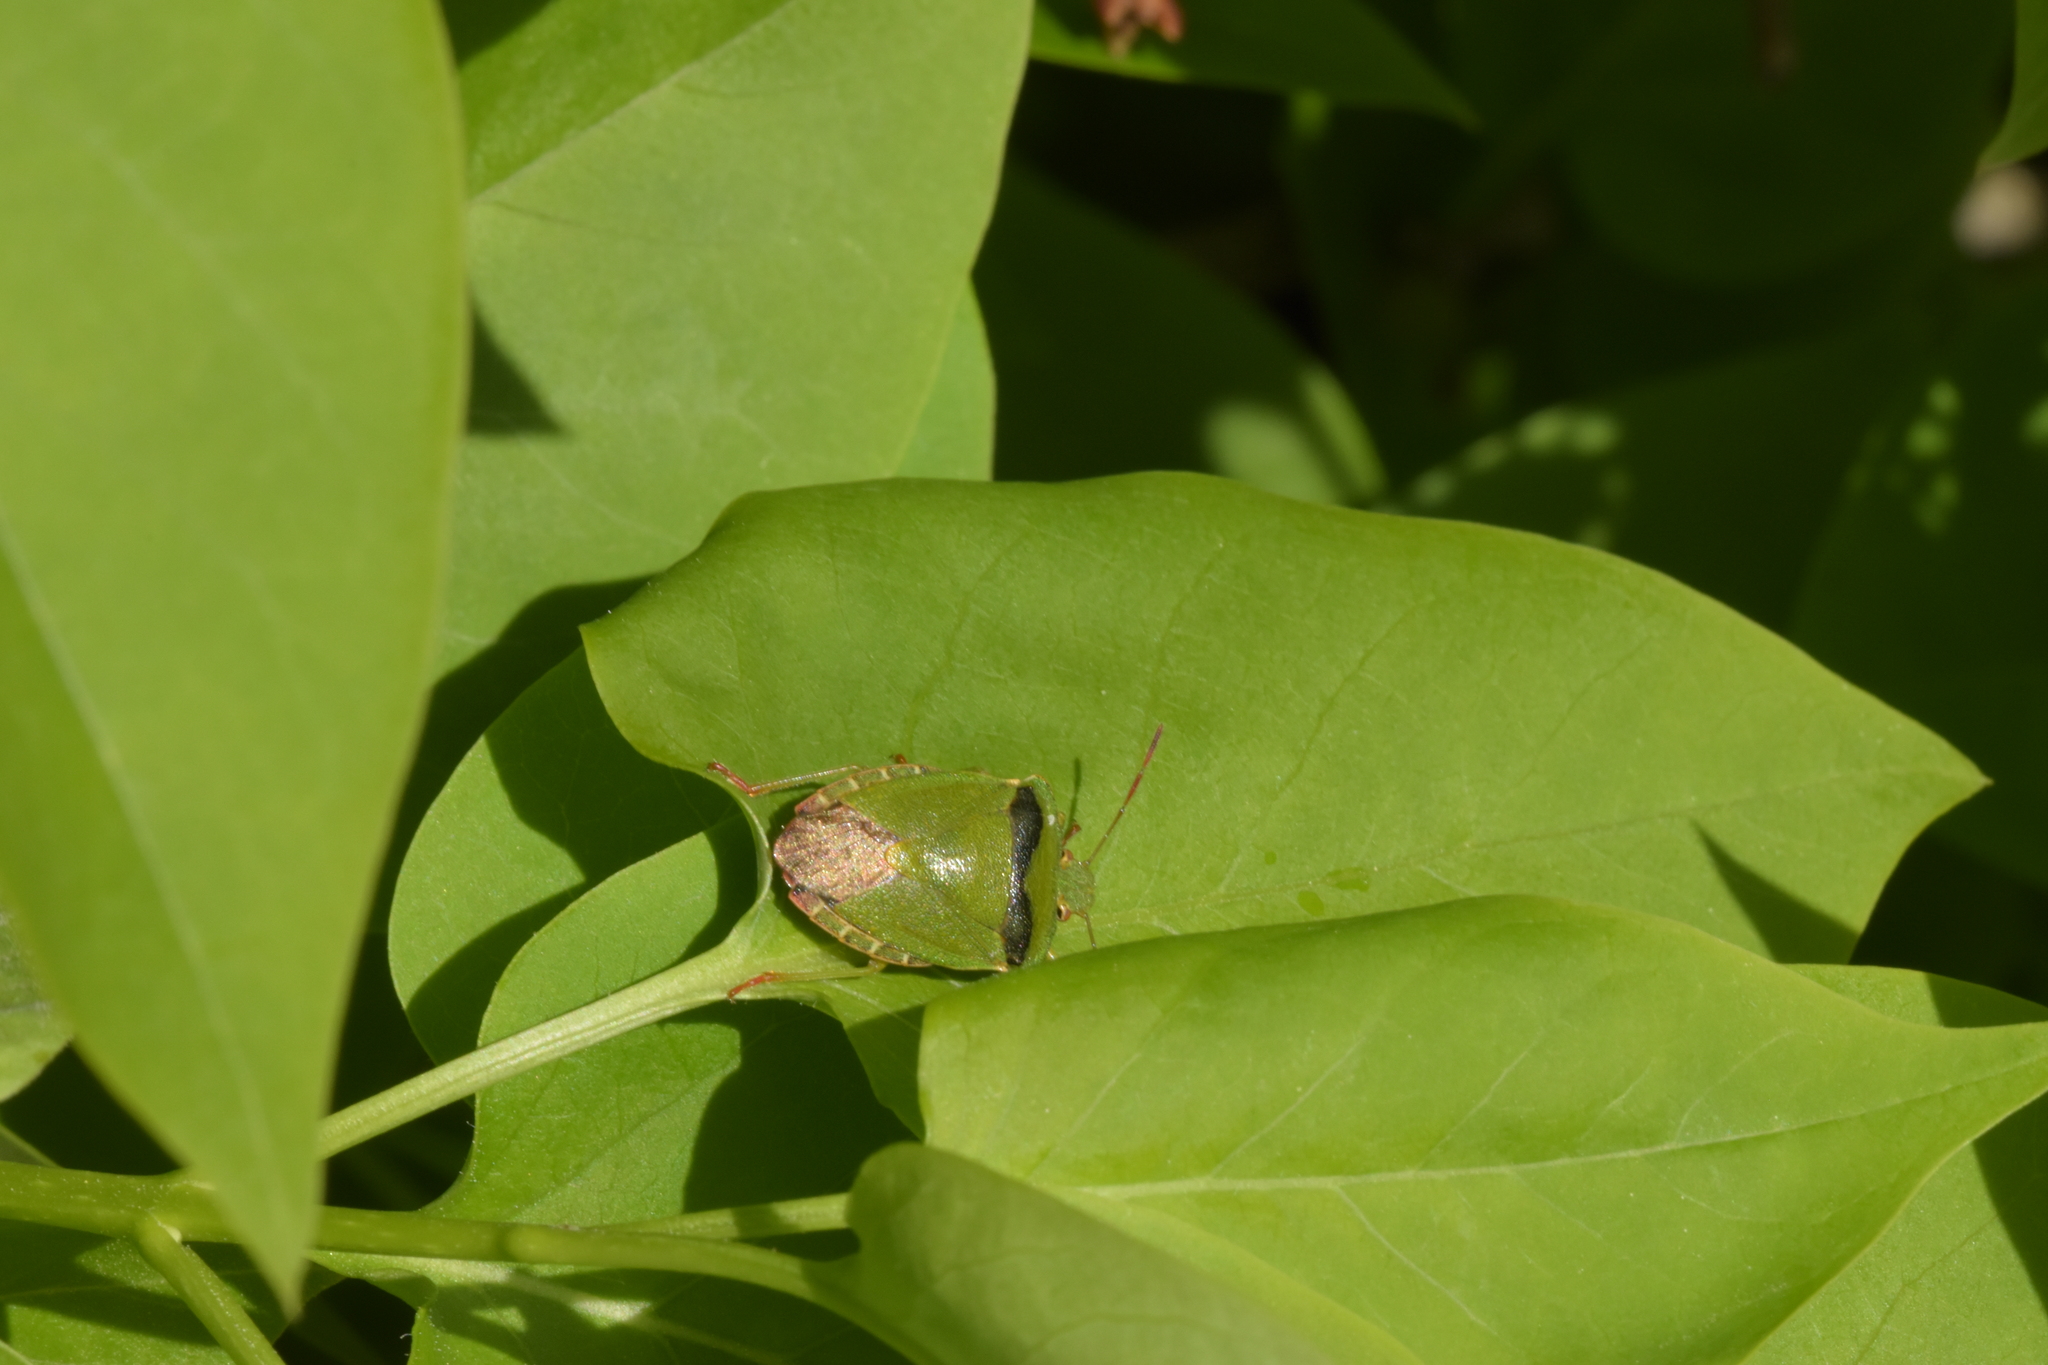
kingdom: Animalia
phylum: Arthropoda
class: Insecta
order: Hemiptera
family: Pentatomidae
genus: Palomena
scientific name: Palomena prasina
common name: Green shieldbug
